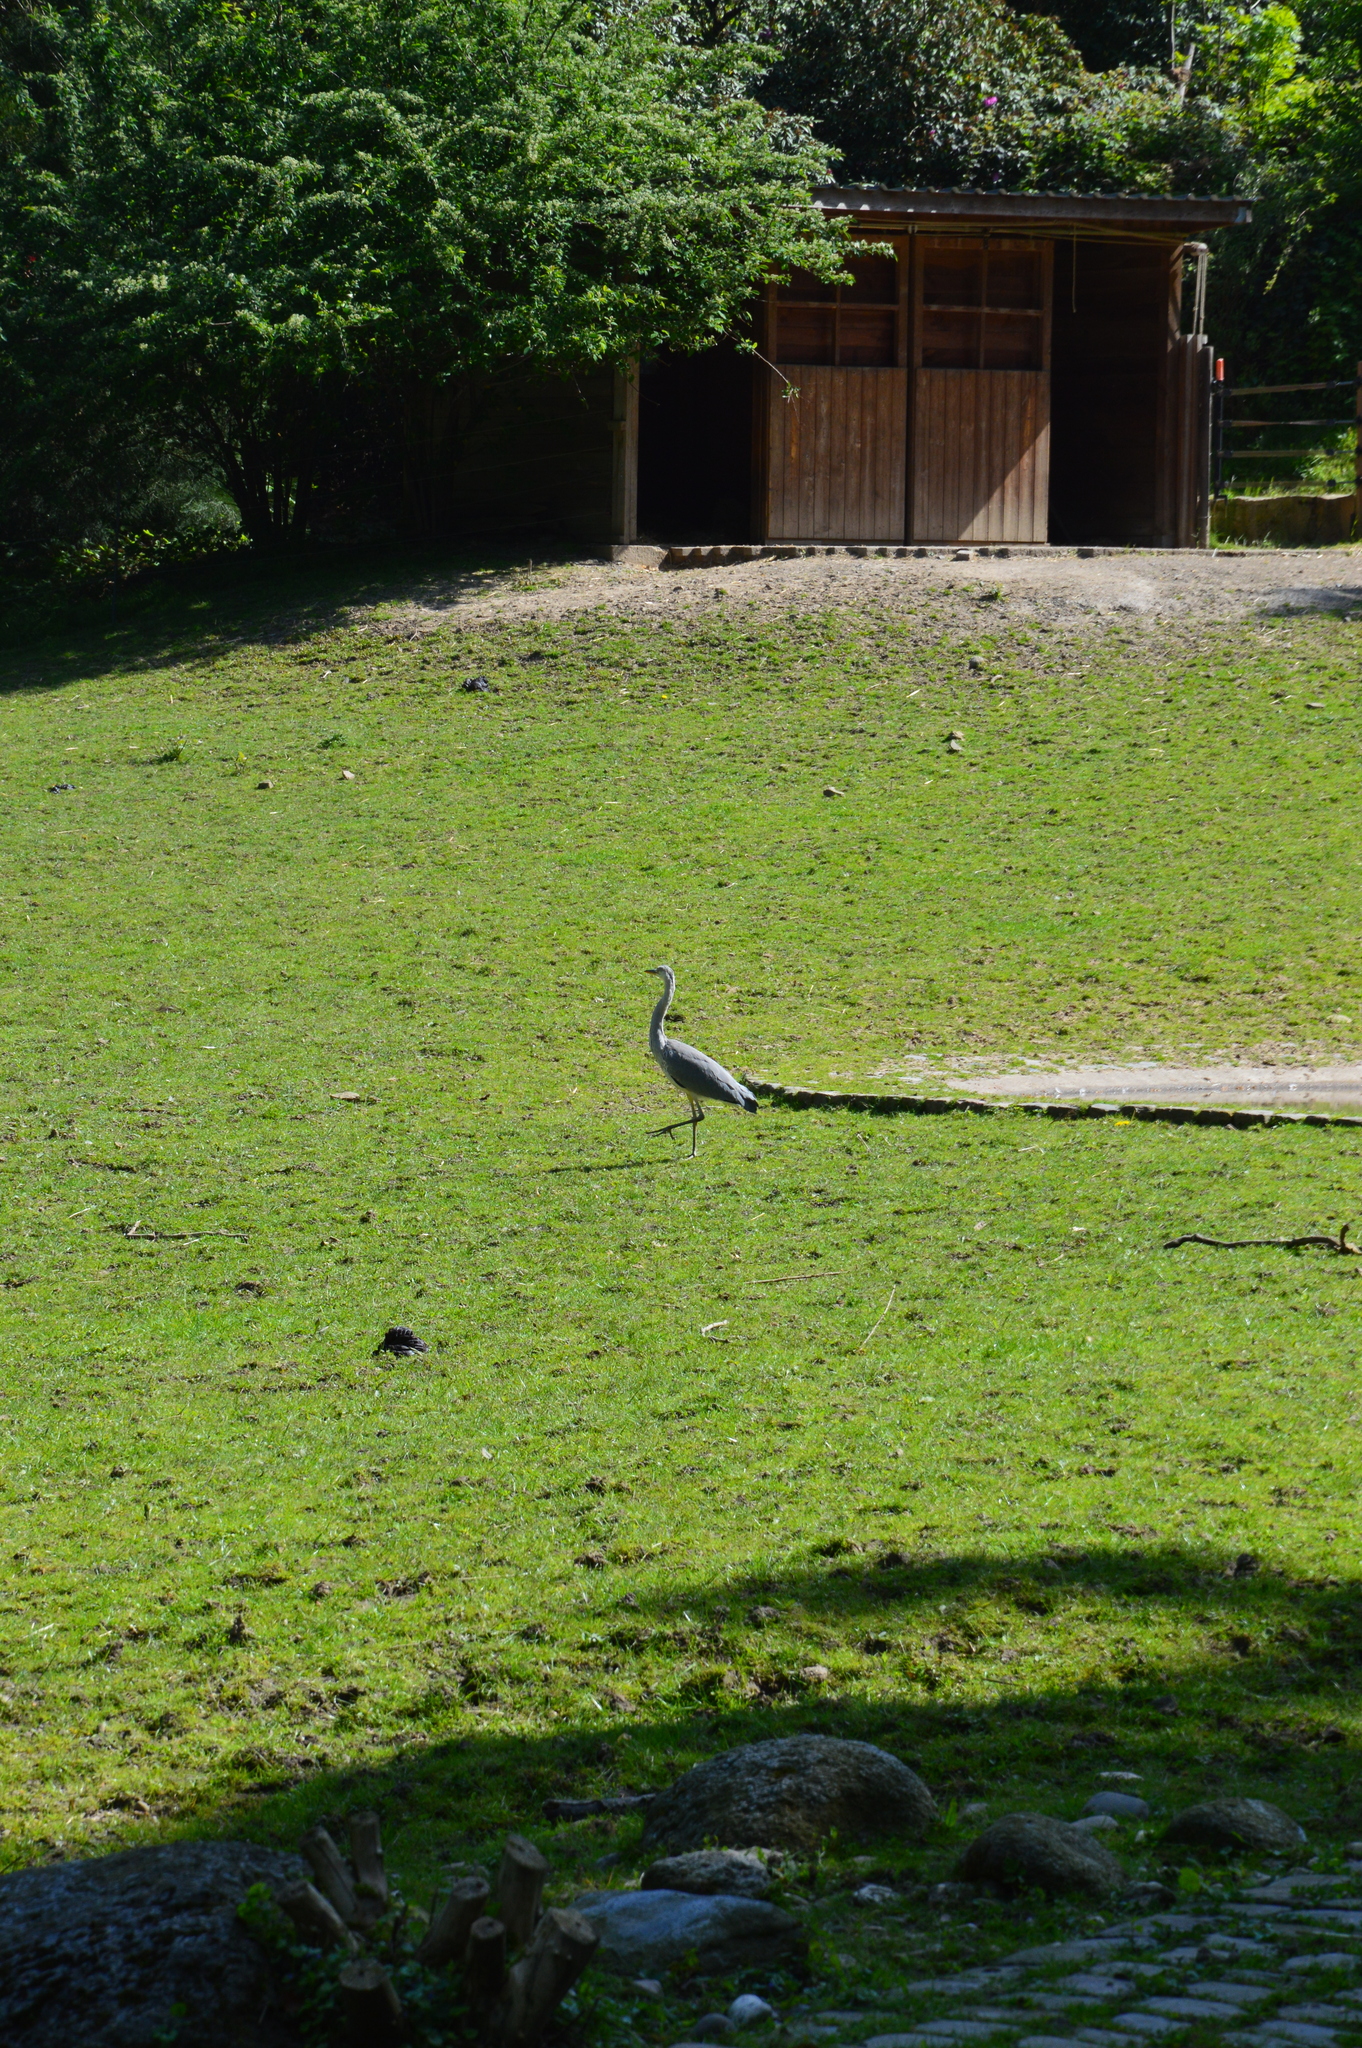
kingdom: Animalia
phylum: Chordata
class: Aves
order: Pelecaniformes
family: Ardeidae
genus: Ardea
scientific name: Ardea cinerea
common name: Grey heron
